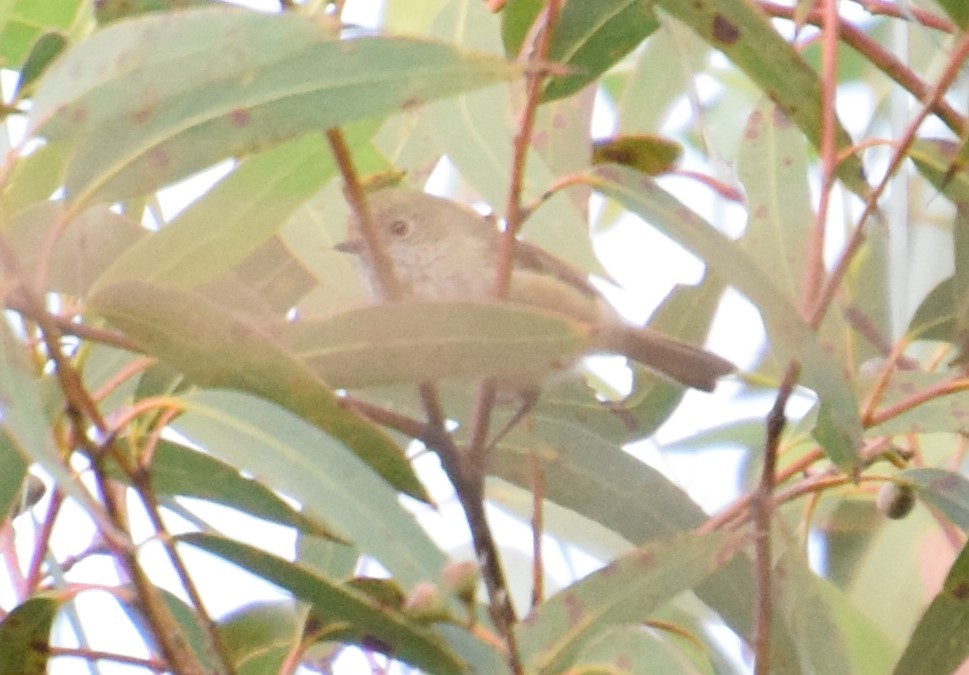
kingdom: Animalia
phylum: Chordata
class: Aves
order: Passeriformes
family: Acanthizidae
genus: Acanthiza
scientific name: Acanthiza pusilla
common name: Brown thornbill
